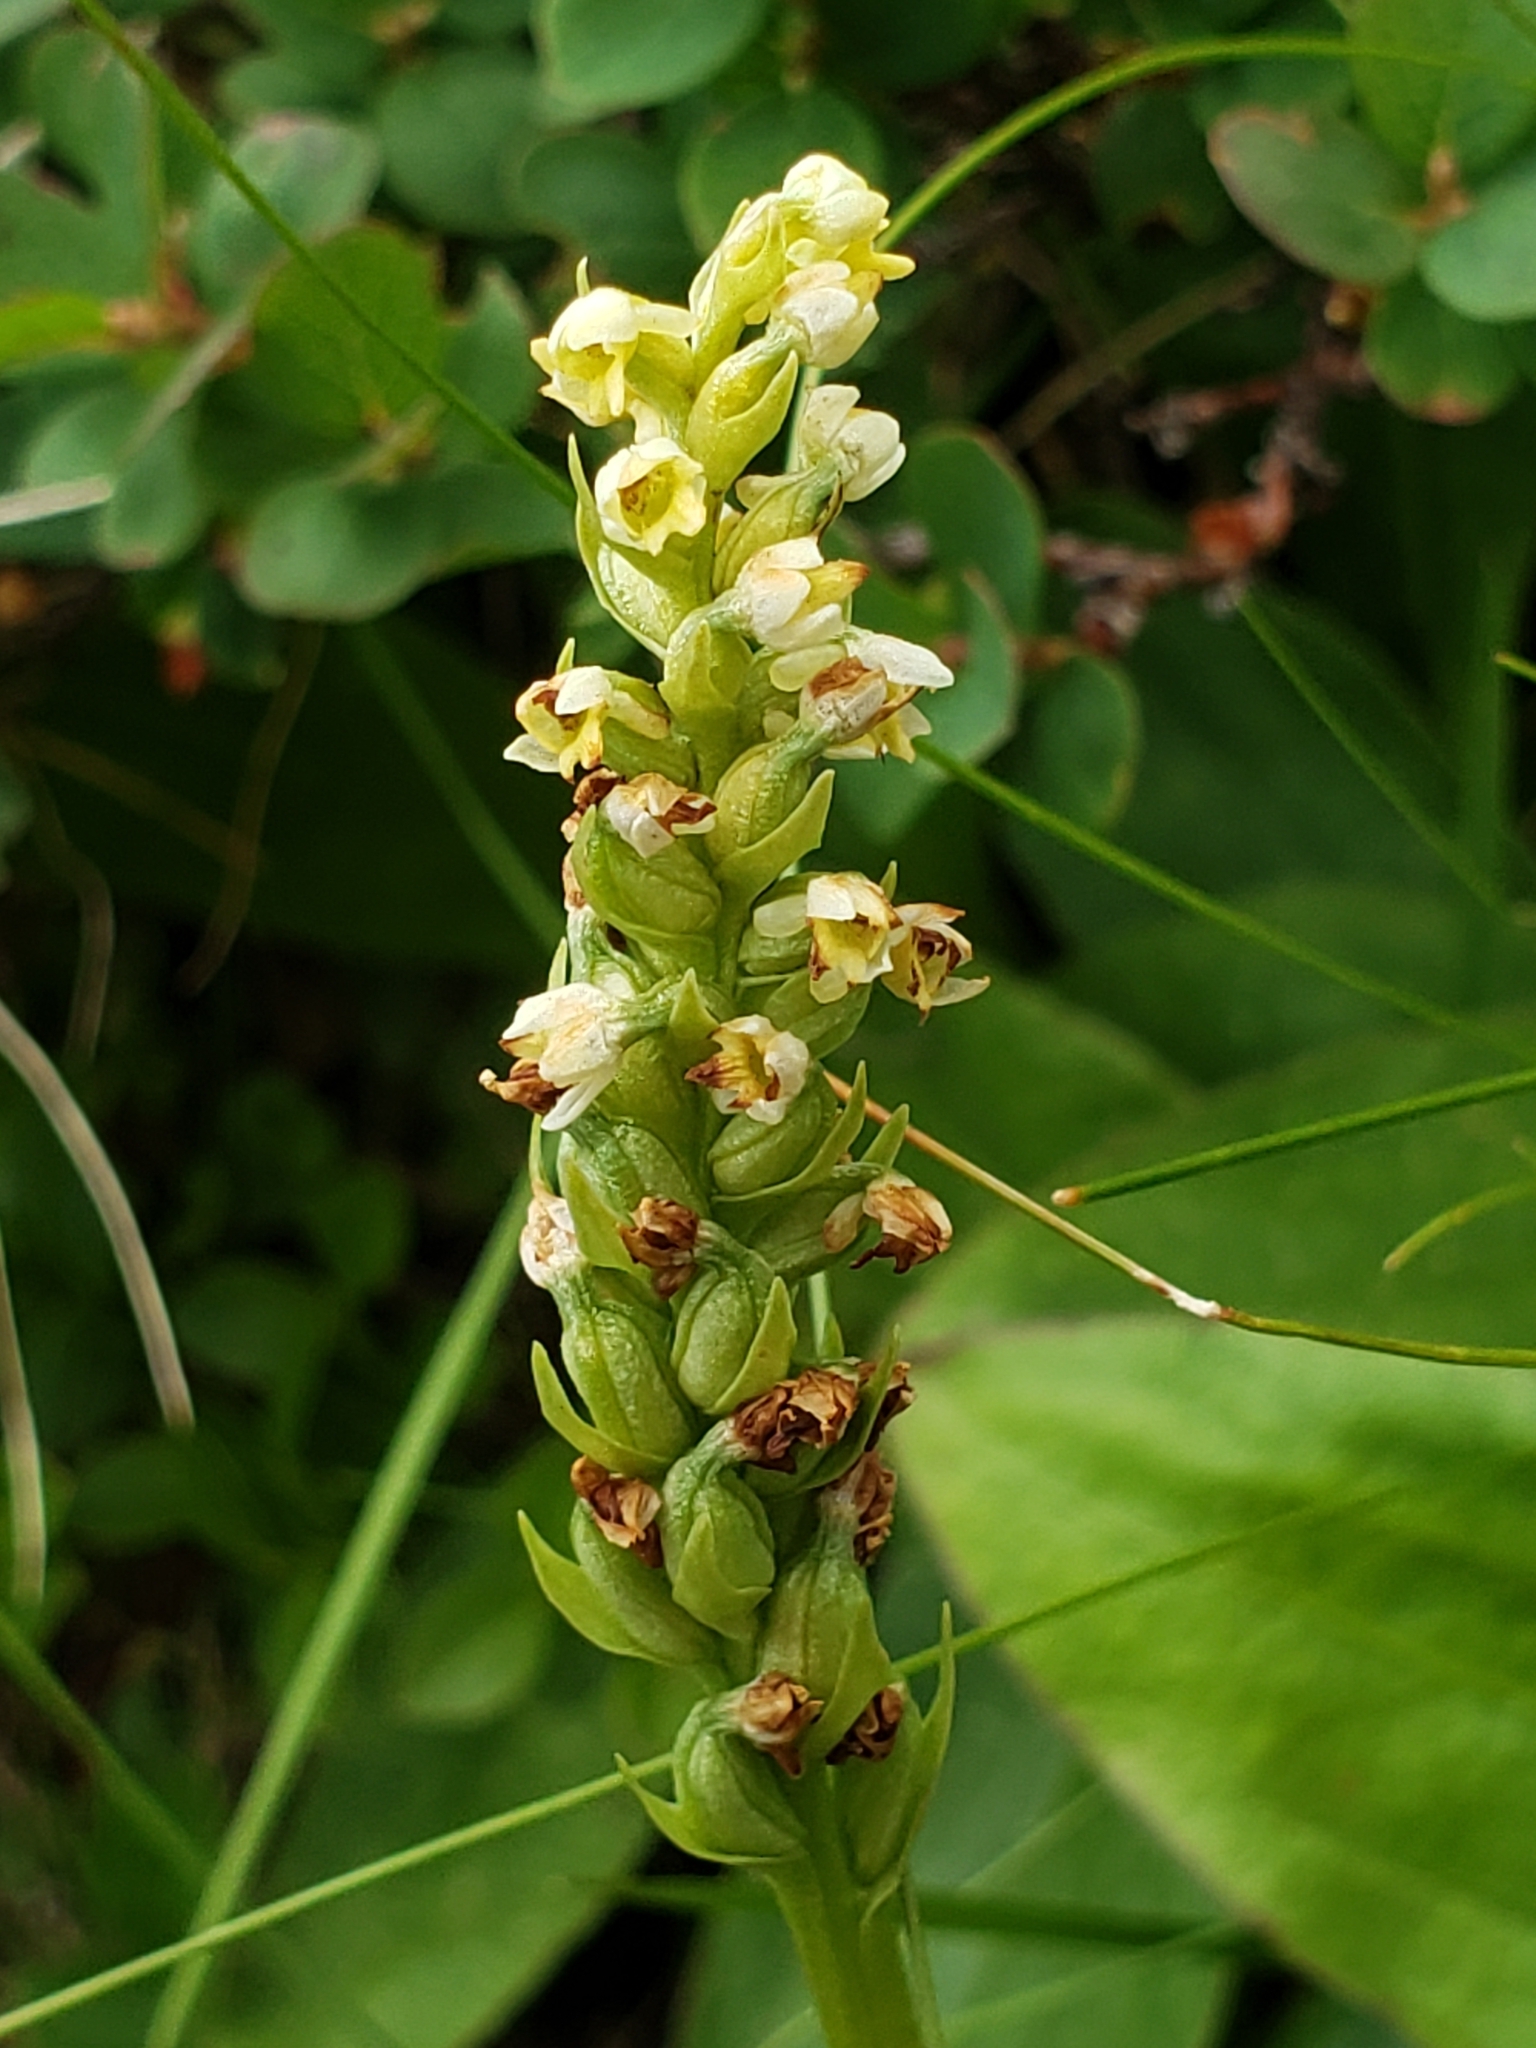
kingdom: Plantae
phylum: Tracheophyta
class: Liliopsida
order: Asparagales
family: Orchidaceae
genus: Pseudorchis
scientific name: Pseudorchis albida
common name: Small-white orchid
